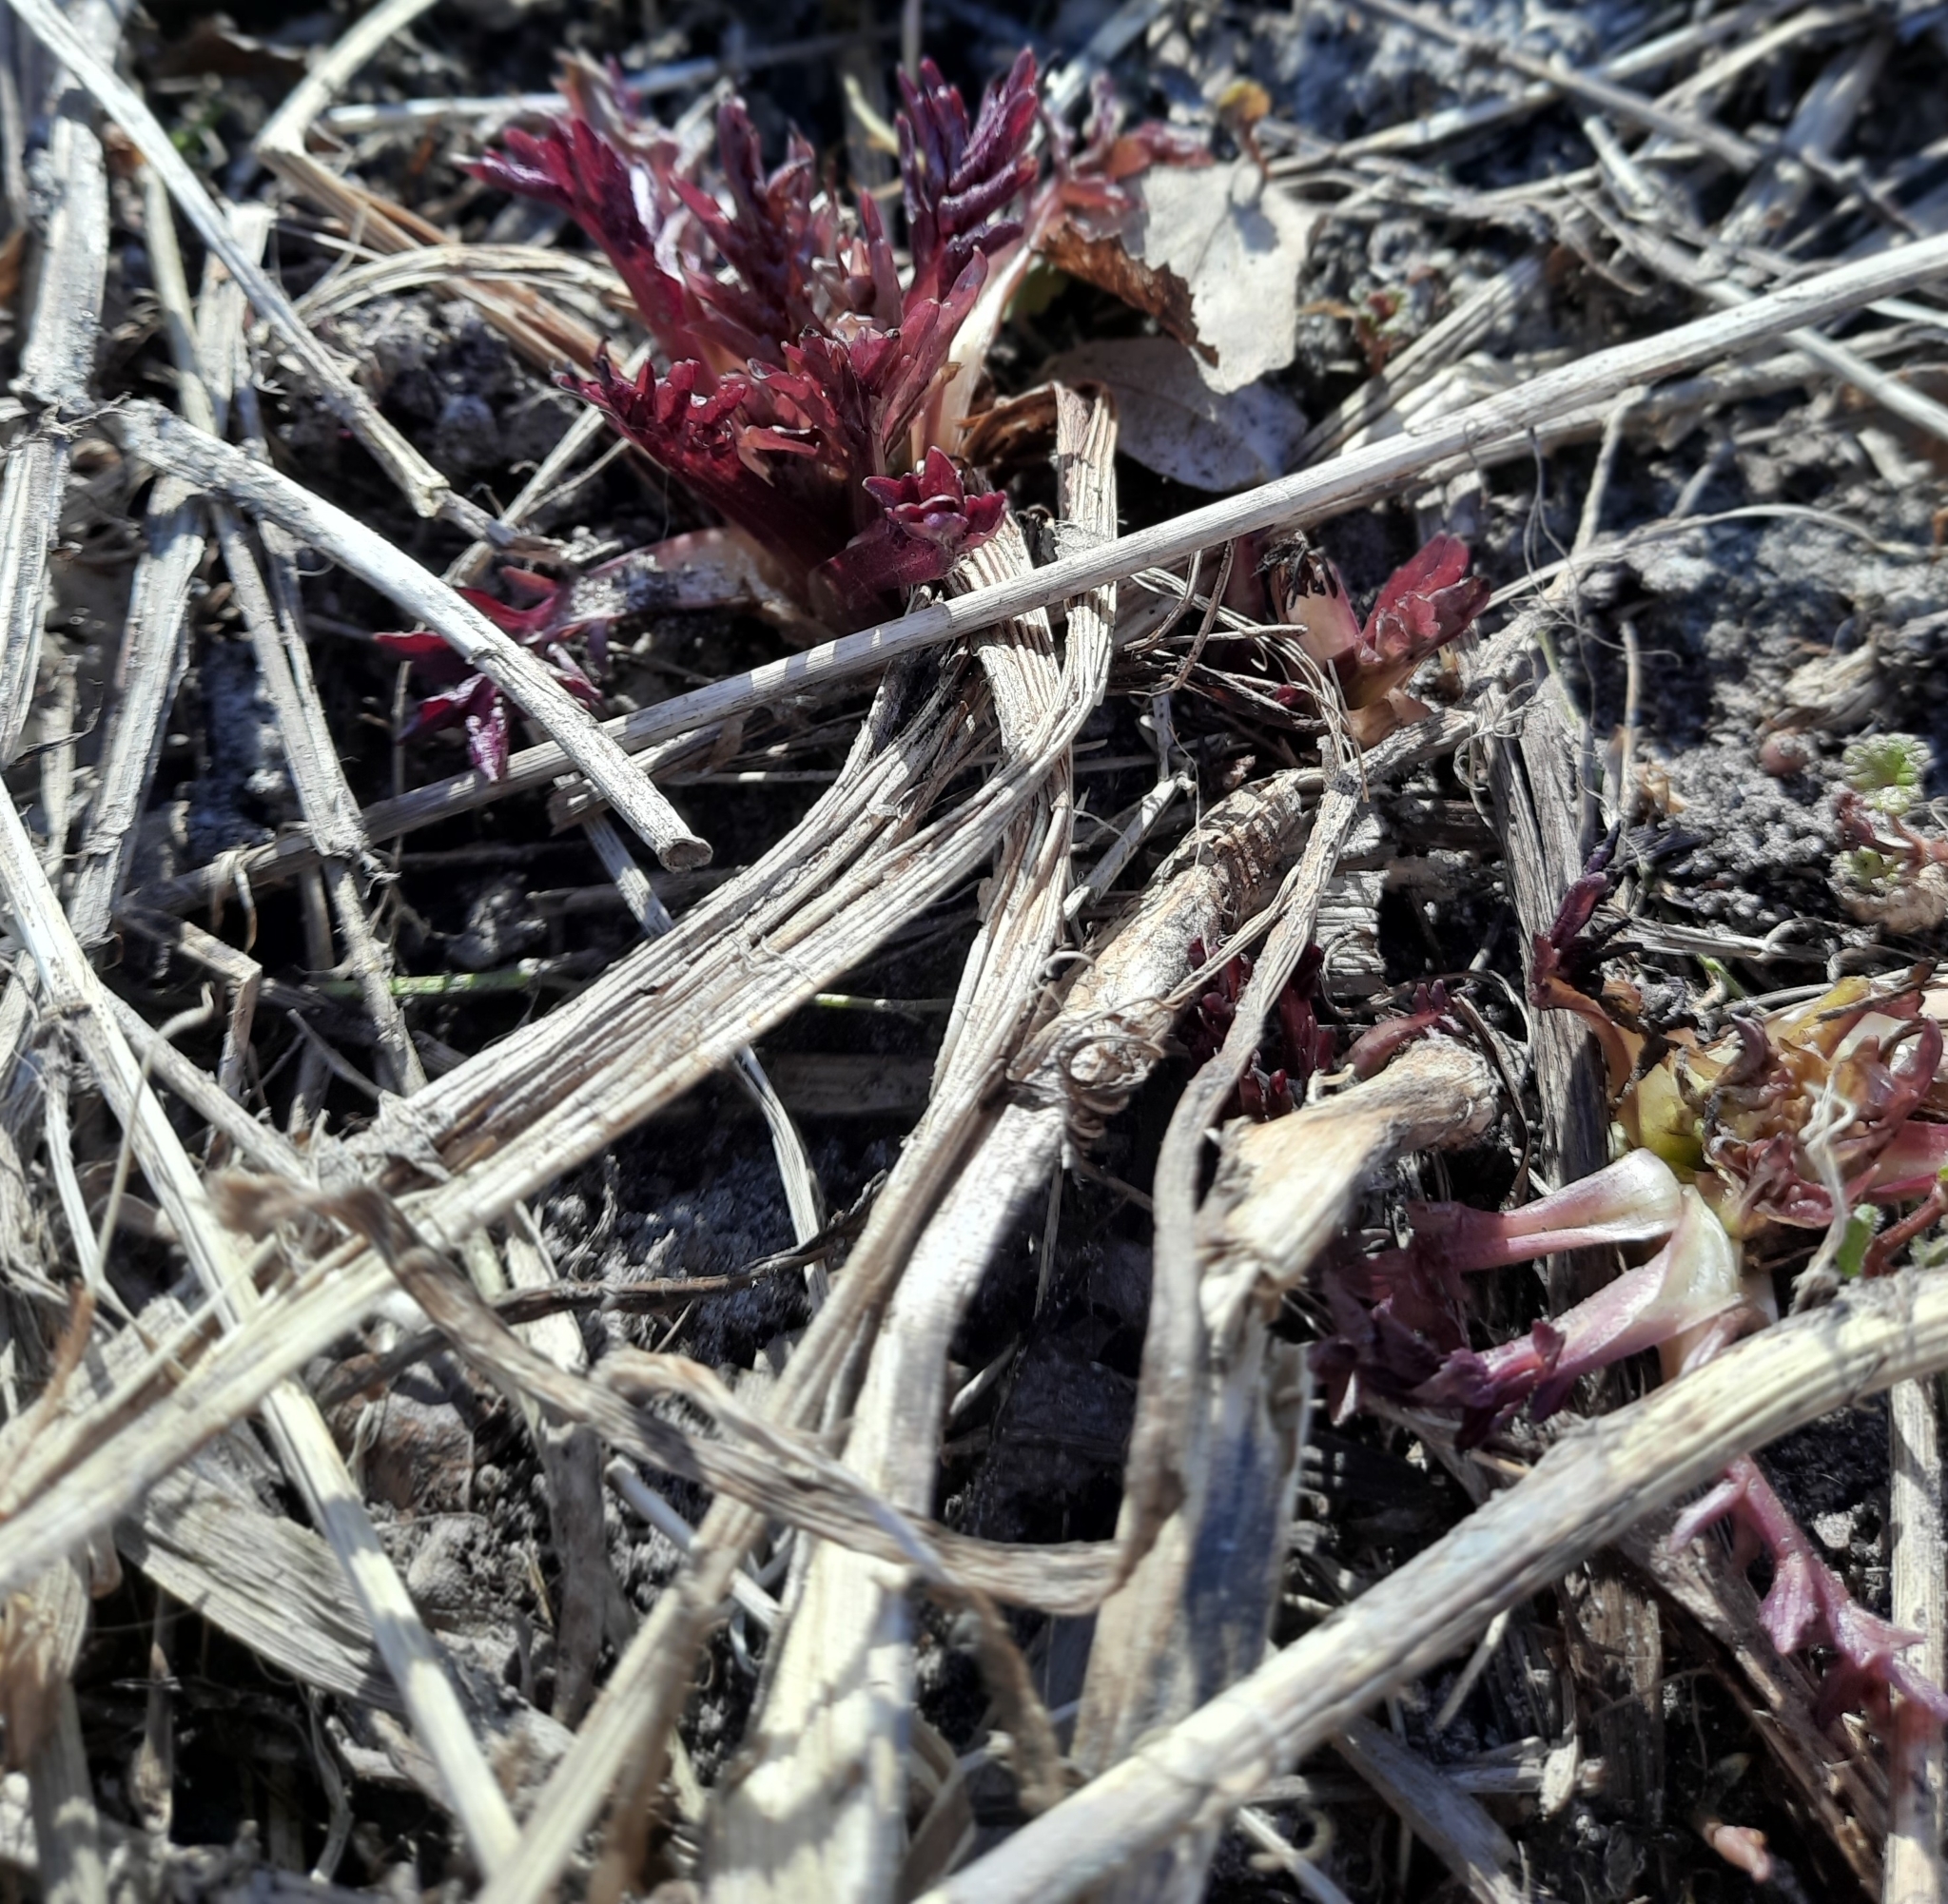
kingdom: Plantae
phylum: Tracheophyta
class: Magnoliopsida
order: Dipsacales
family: Caprifoliaceae
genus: Valeriana
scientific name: Valeriana wolgensis
